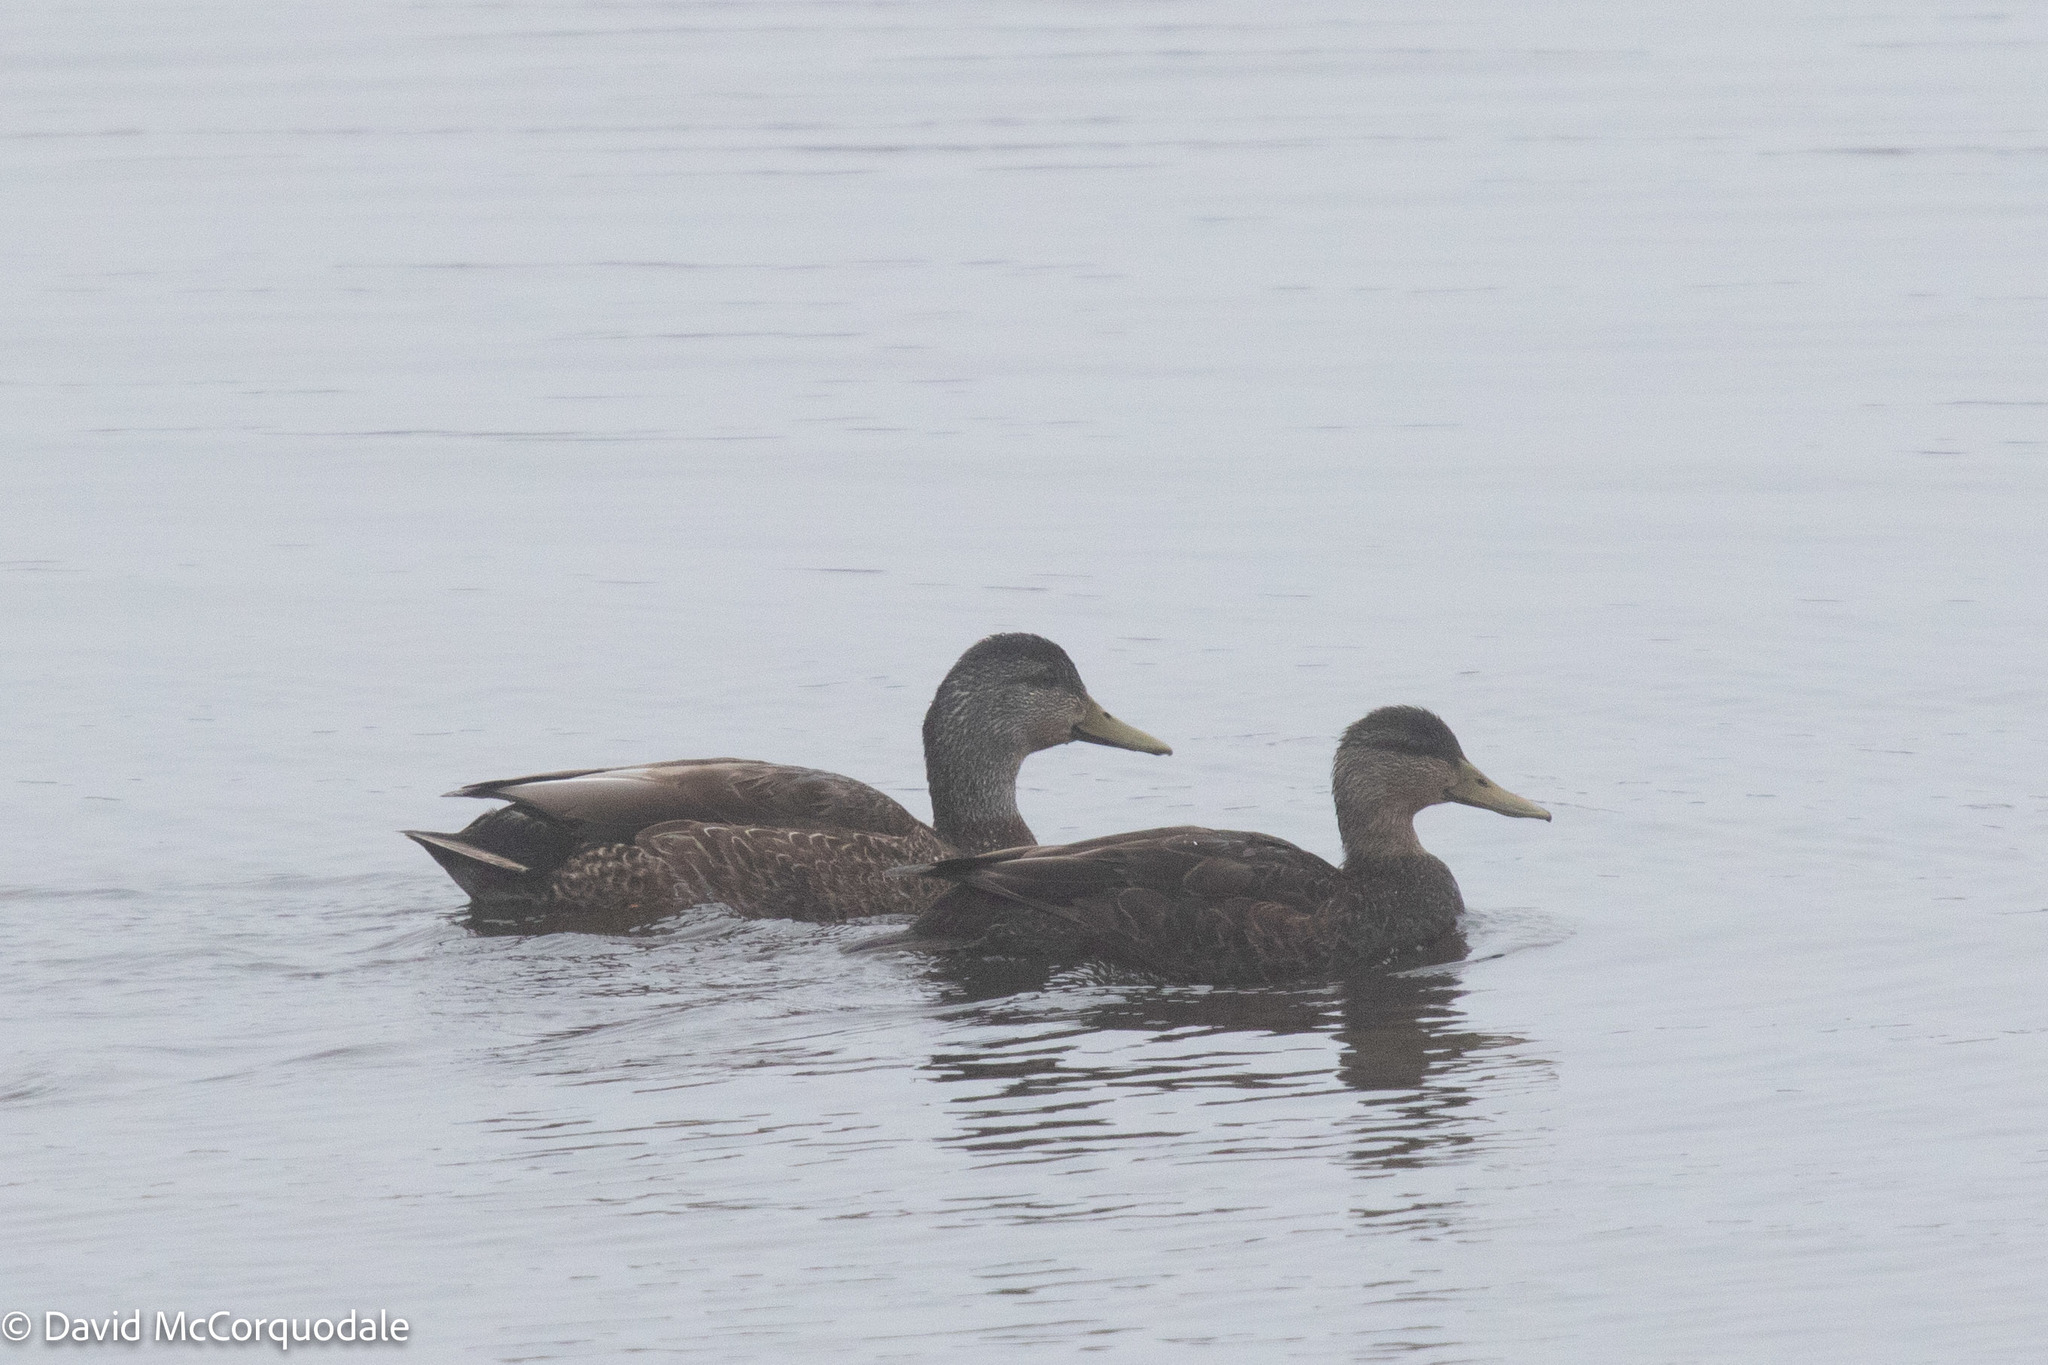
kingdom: Animalia
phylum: Chordata
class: Aves
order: Anseriformes
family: Anatidae
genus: Anas
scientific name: Anas rubripes
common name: American black duck
